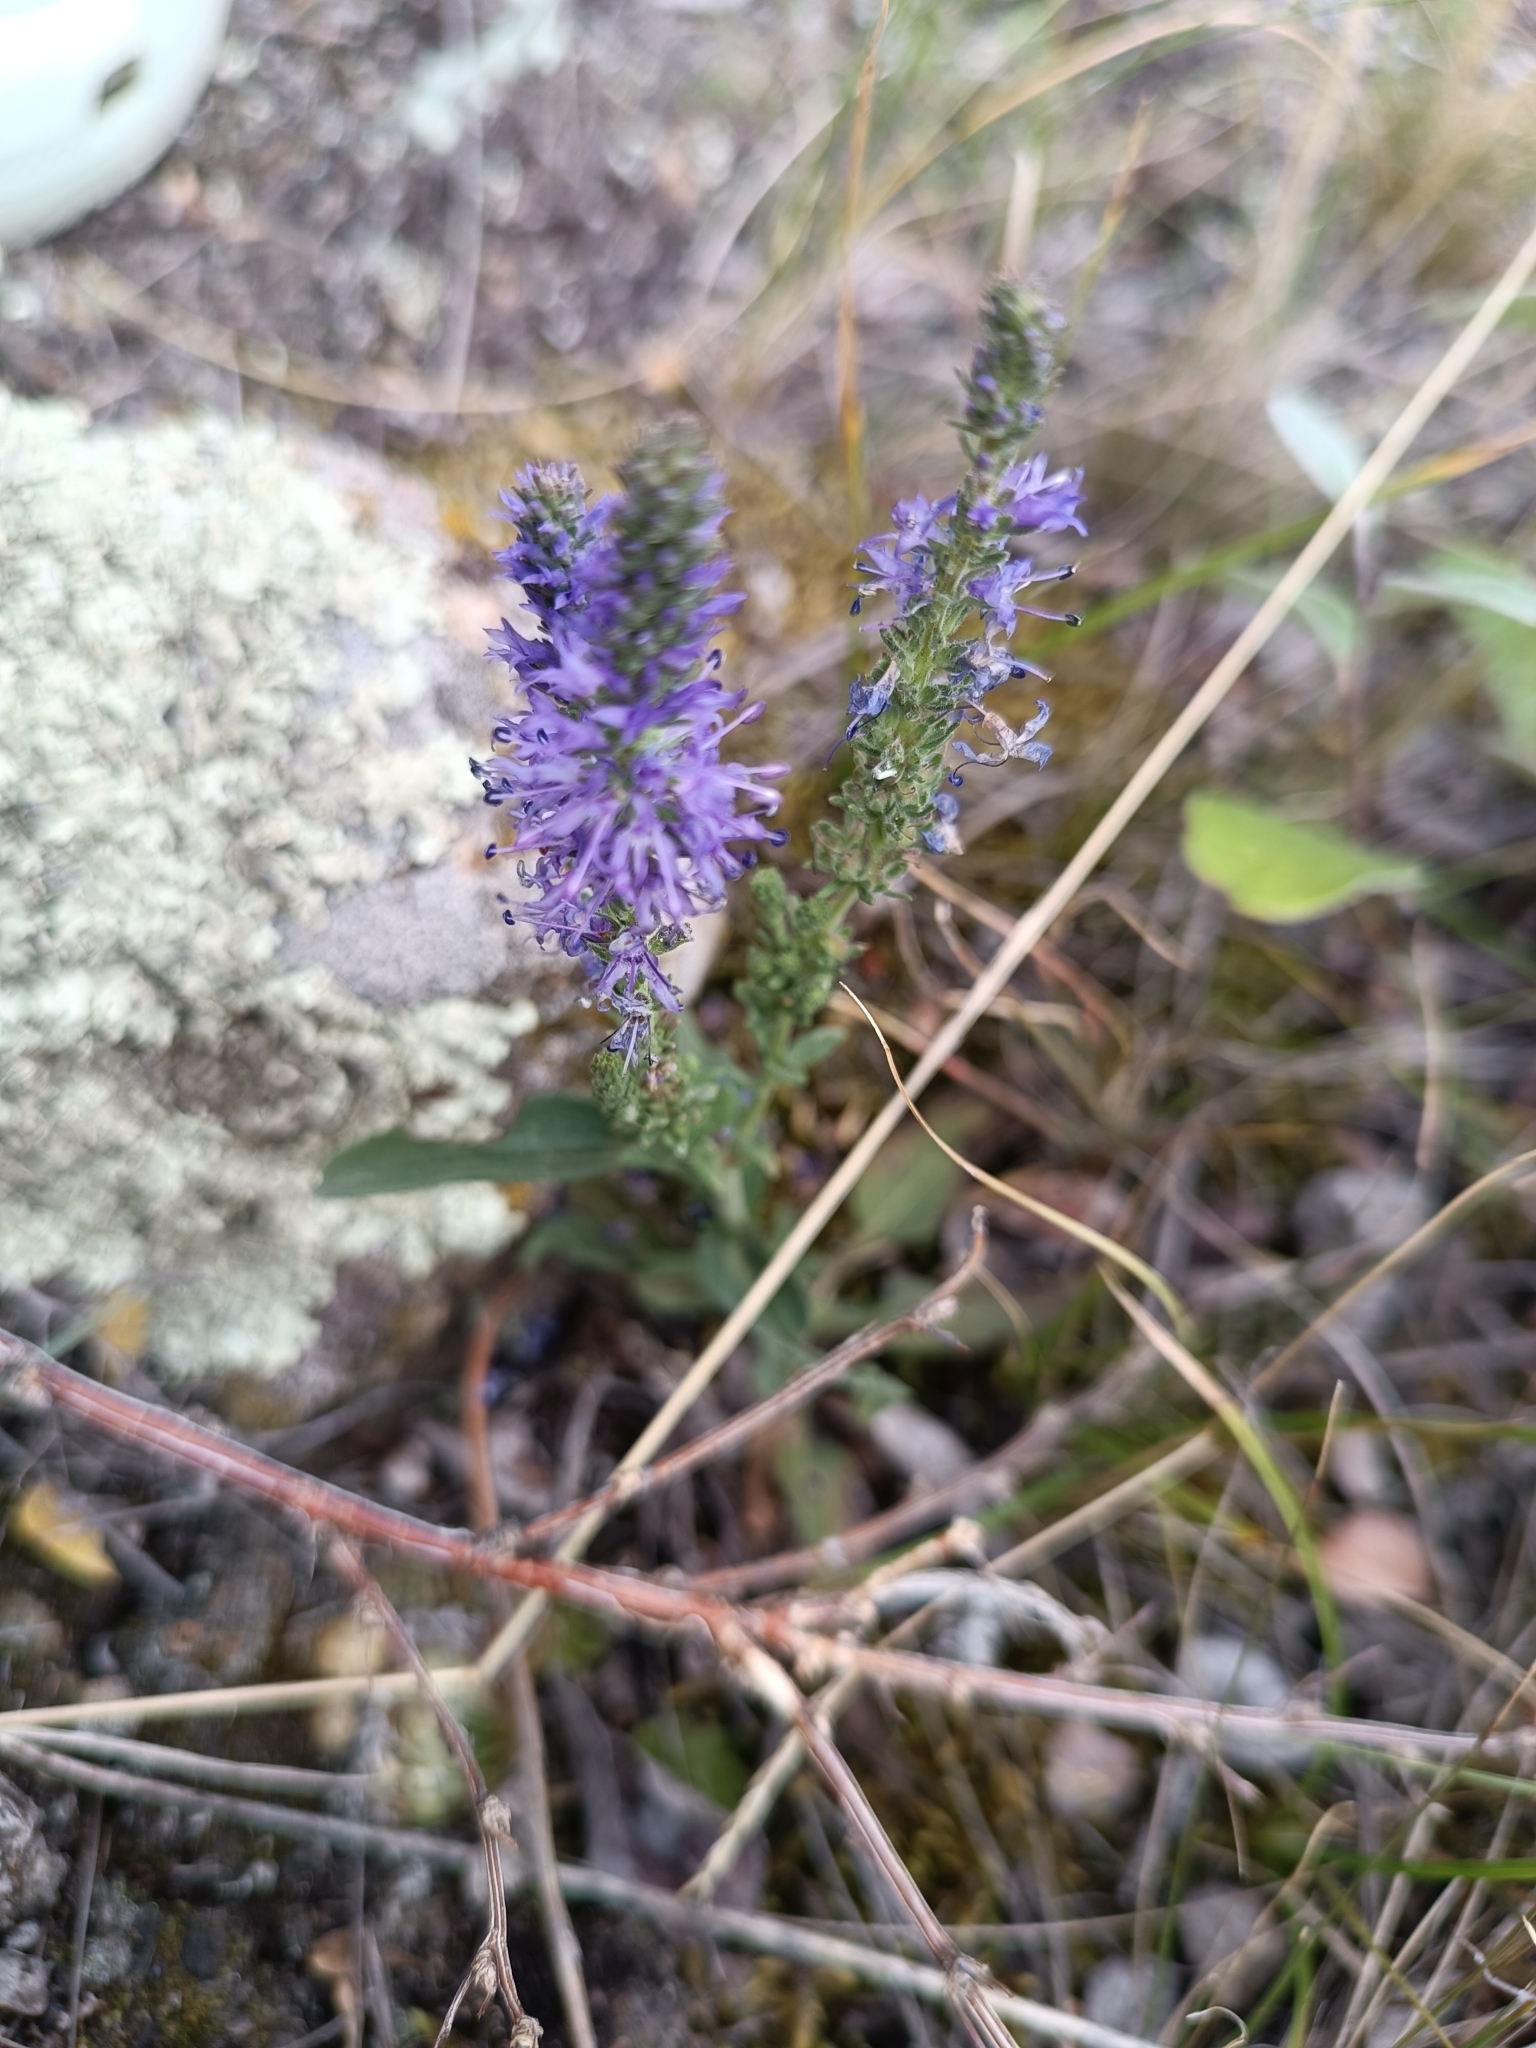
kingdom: Plantae
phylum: Tracheophyta
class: Magnoliopsida
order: Lamiales
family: Plantaginaceae
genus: Veronica
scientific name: Veronica spicata
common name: Spiked speedwell
